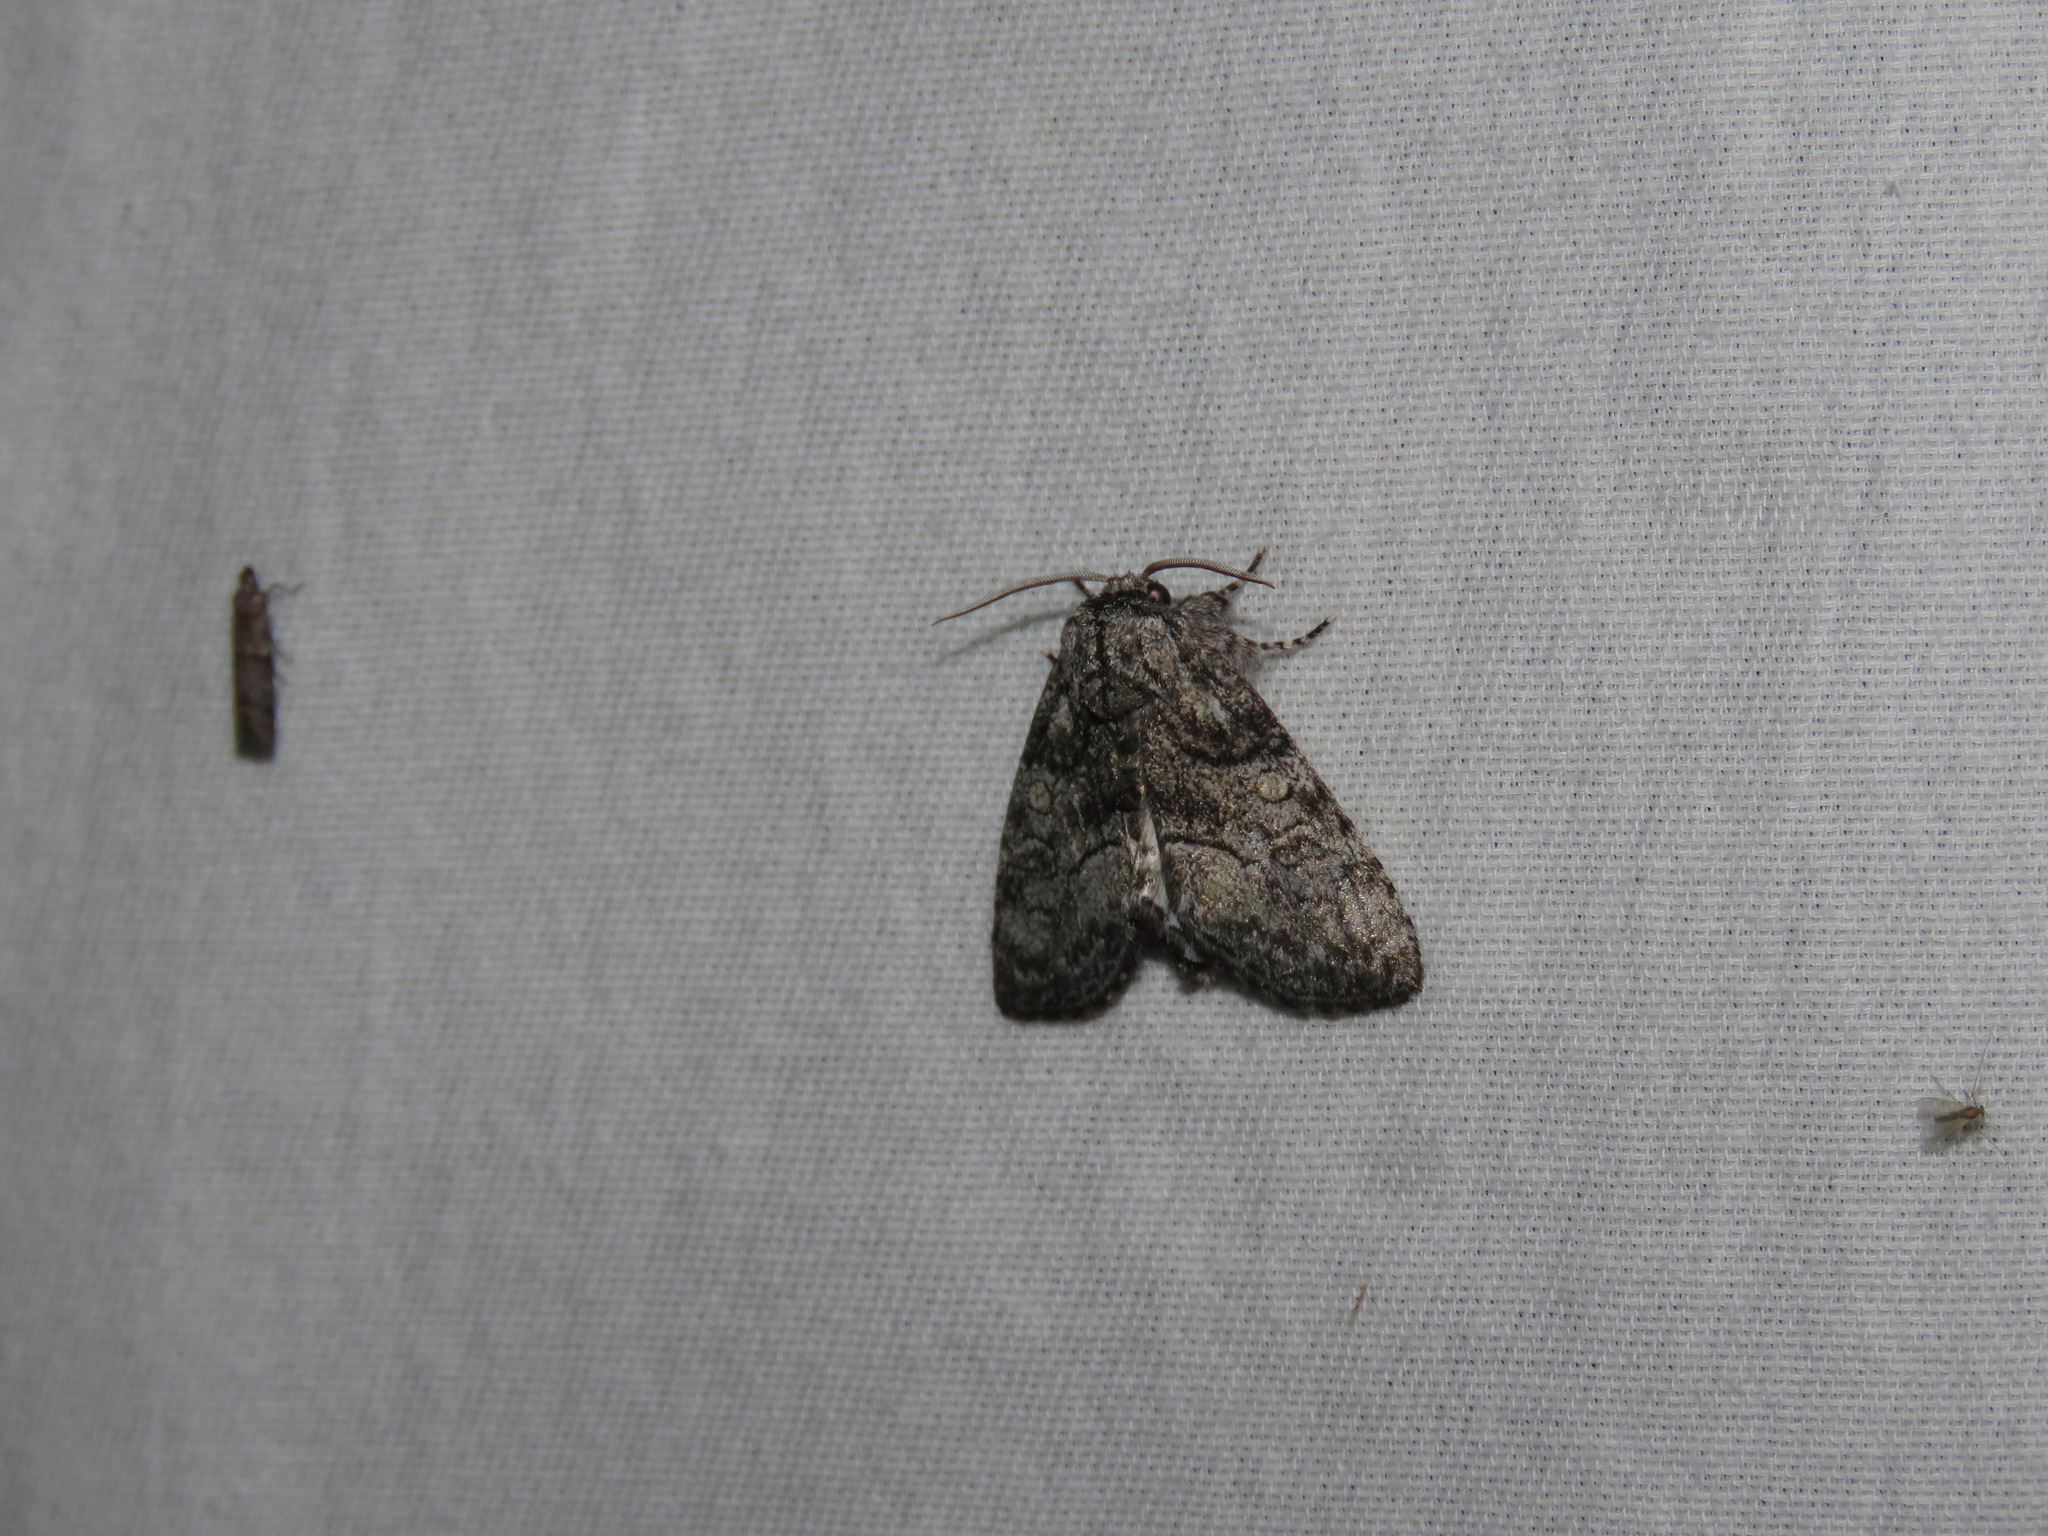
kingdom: Animalia
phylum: Arthropoda
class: Insecta
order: Lepidoptera
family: Noctuidae
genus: Raphia
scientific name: Raphia frater
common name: Brother
